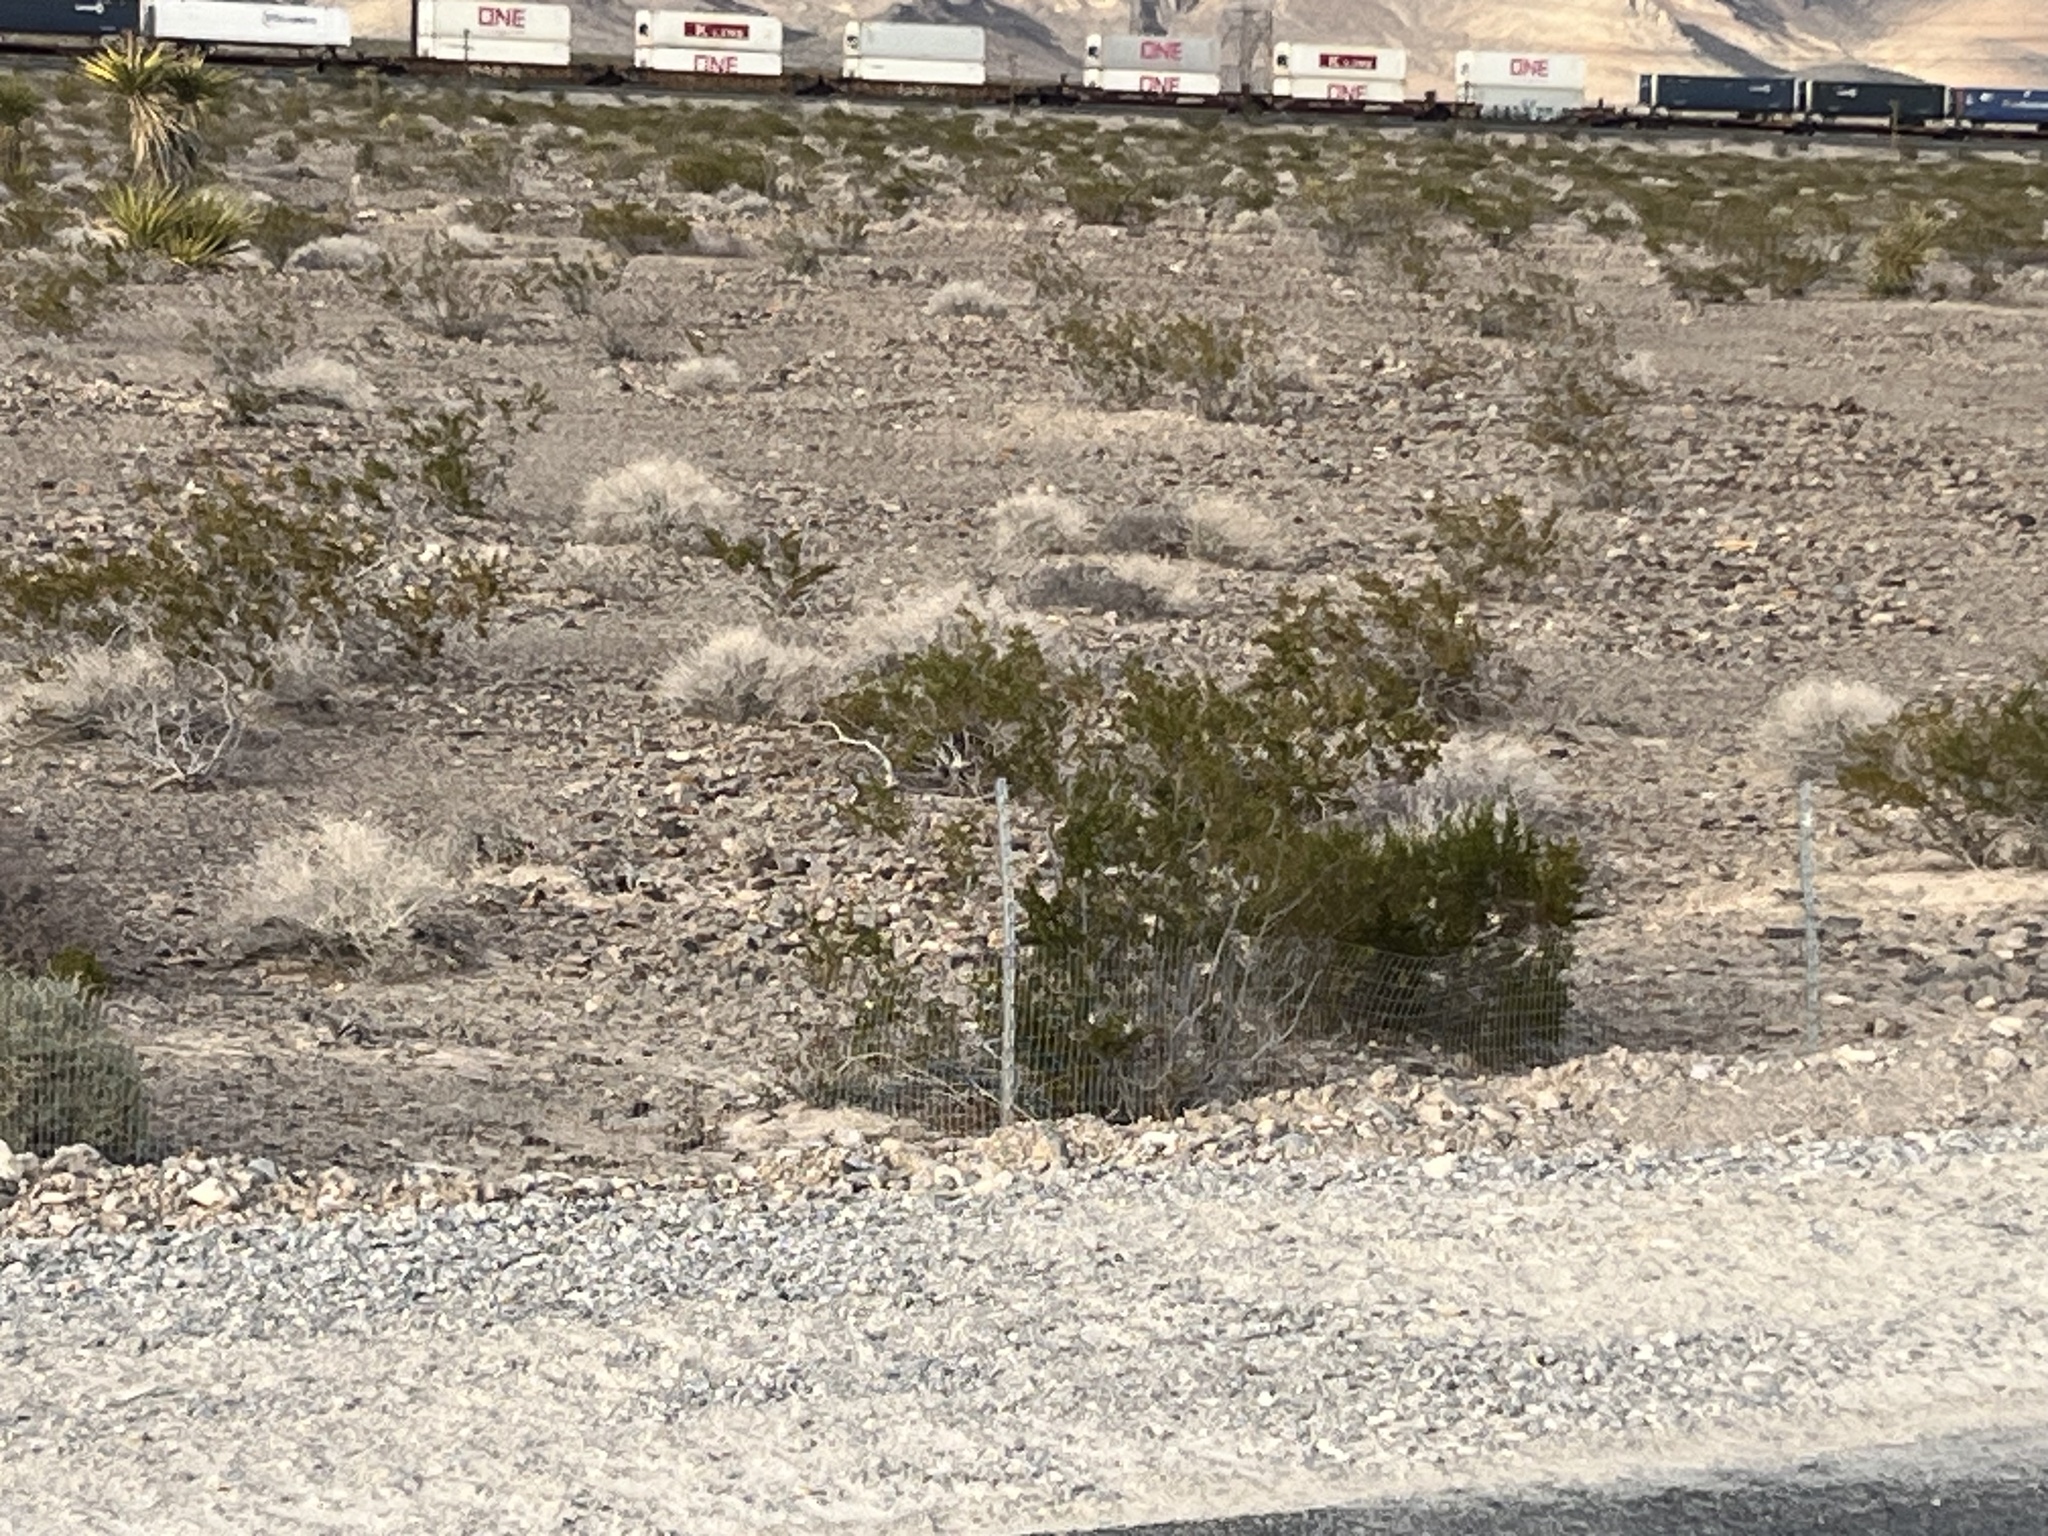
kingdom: Plantae
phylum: Tracheophyta
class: Magnoliopsida
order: Zygophyllales
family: Zygophyllaceae
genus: Larrea
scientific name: Larrea tridentata
